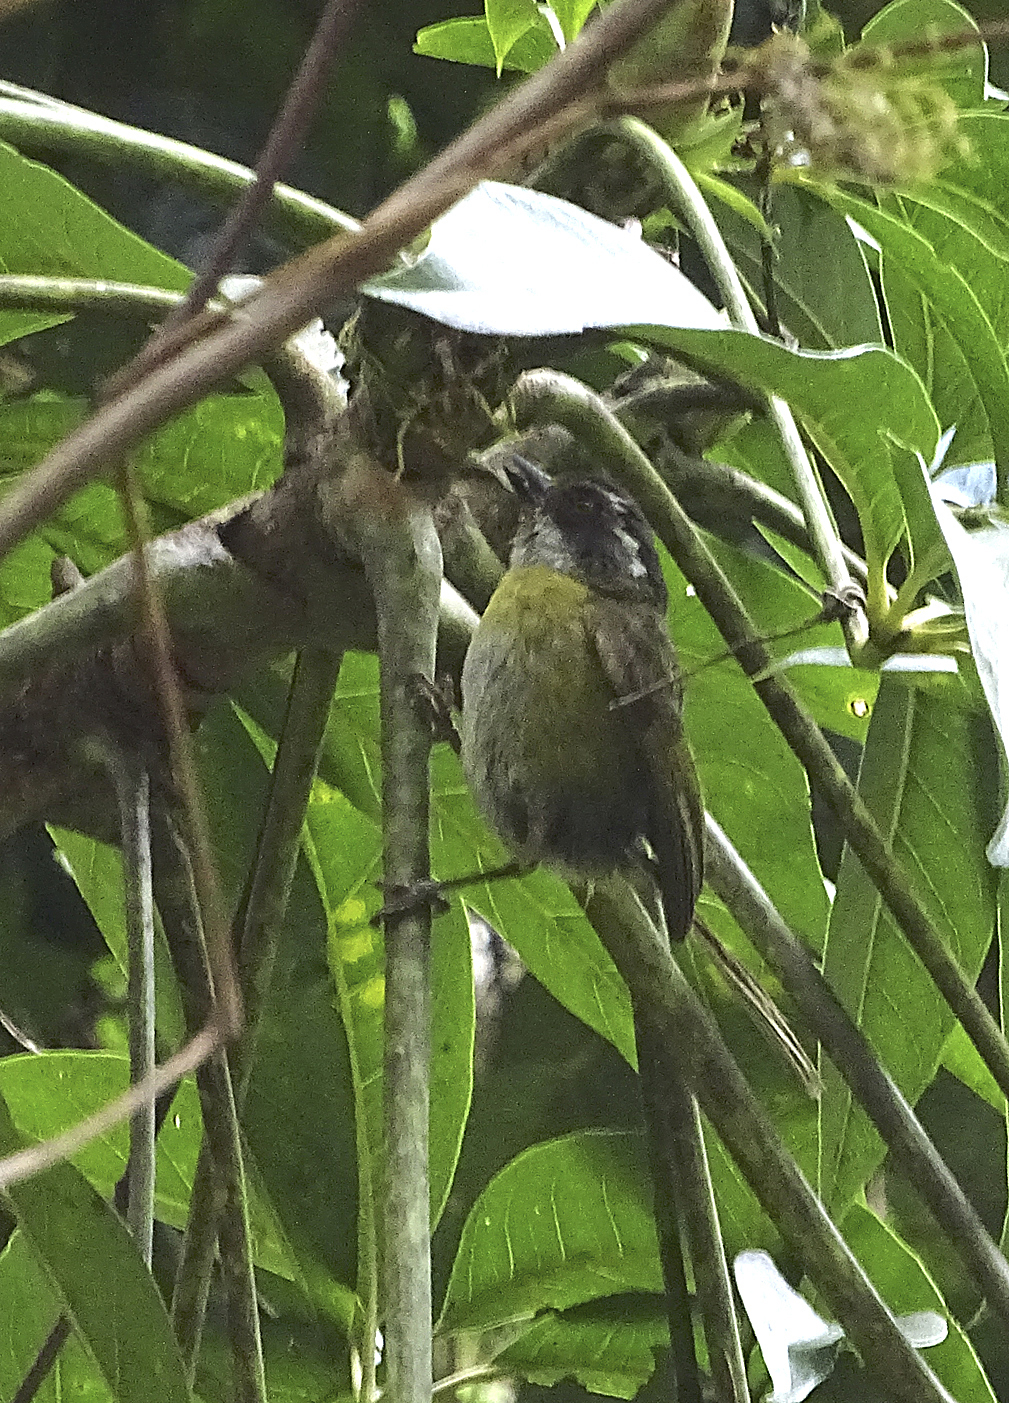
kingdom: Animalia
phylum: Chordata
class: Aves
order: Passeriformes
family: Passerellidae
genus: Chlorospingus
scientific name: Chlorospingus pileatus
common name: Sooty-capped bush-tanager
